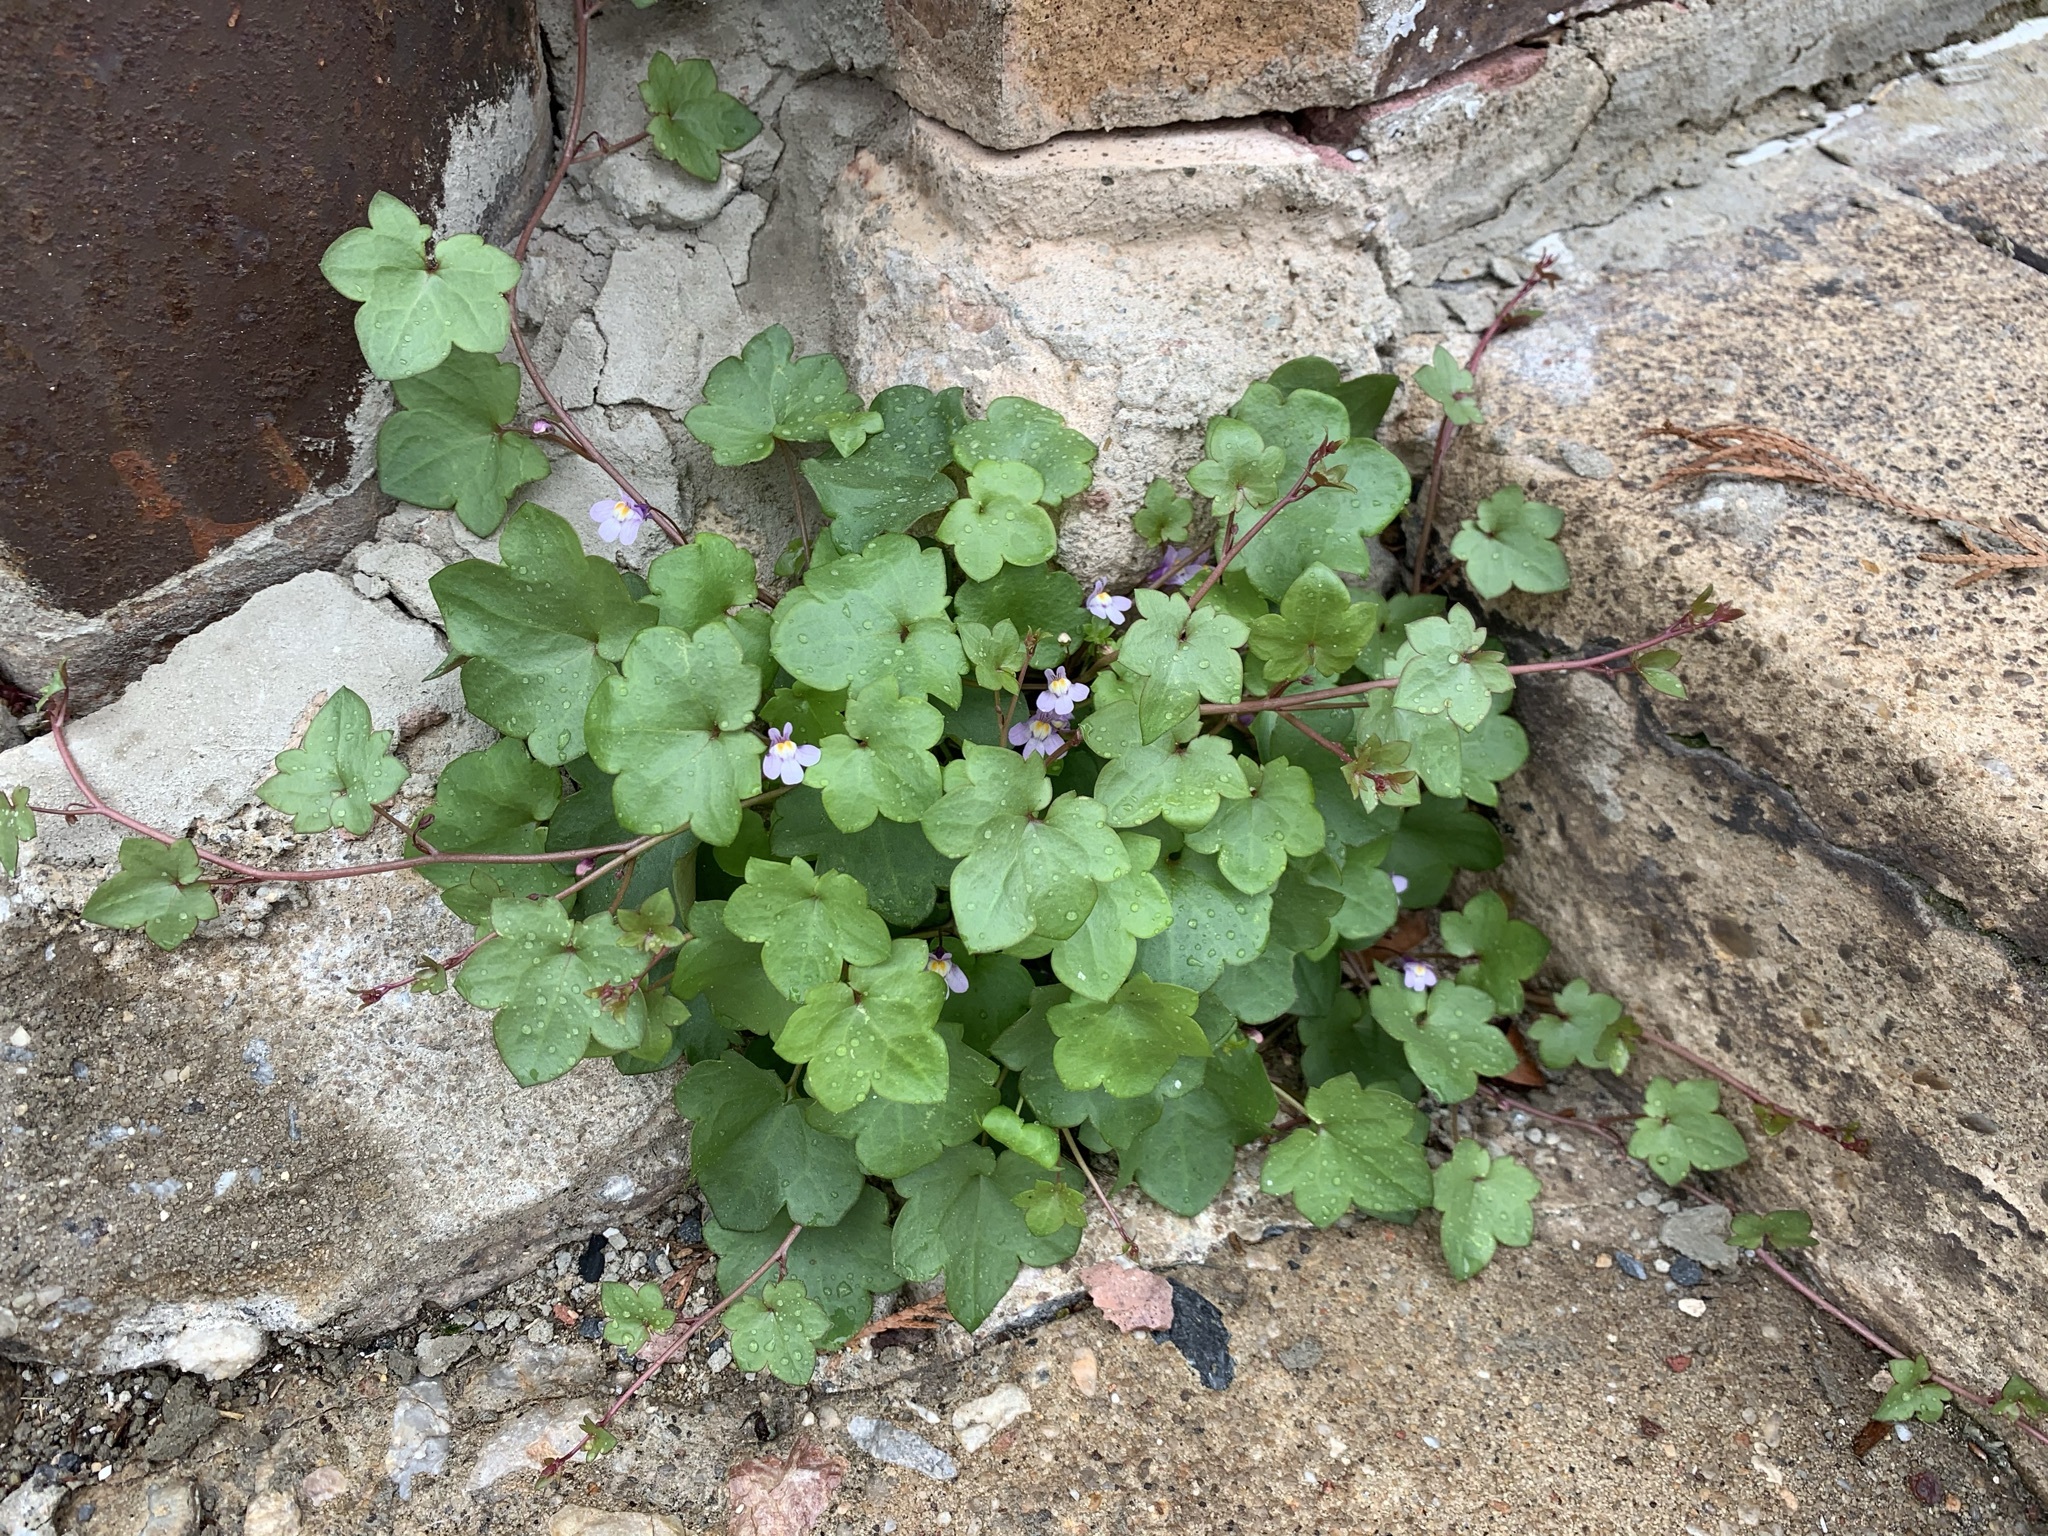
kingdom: Plantae
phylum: Tracheophyta
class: Magnoliopsida
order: Lamiales
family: Plantaginaceae
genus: Cymbalaria
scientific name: Cymbalaria muralis
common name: Ivy-leaved toadflax
